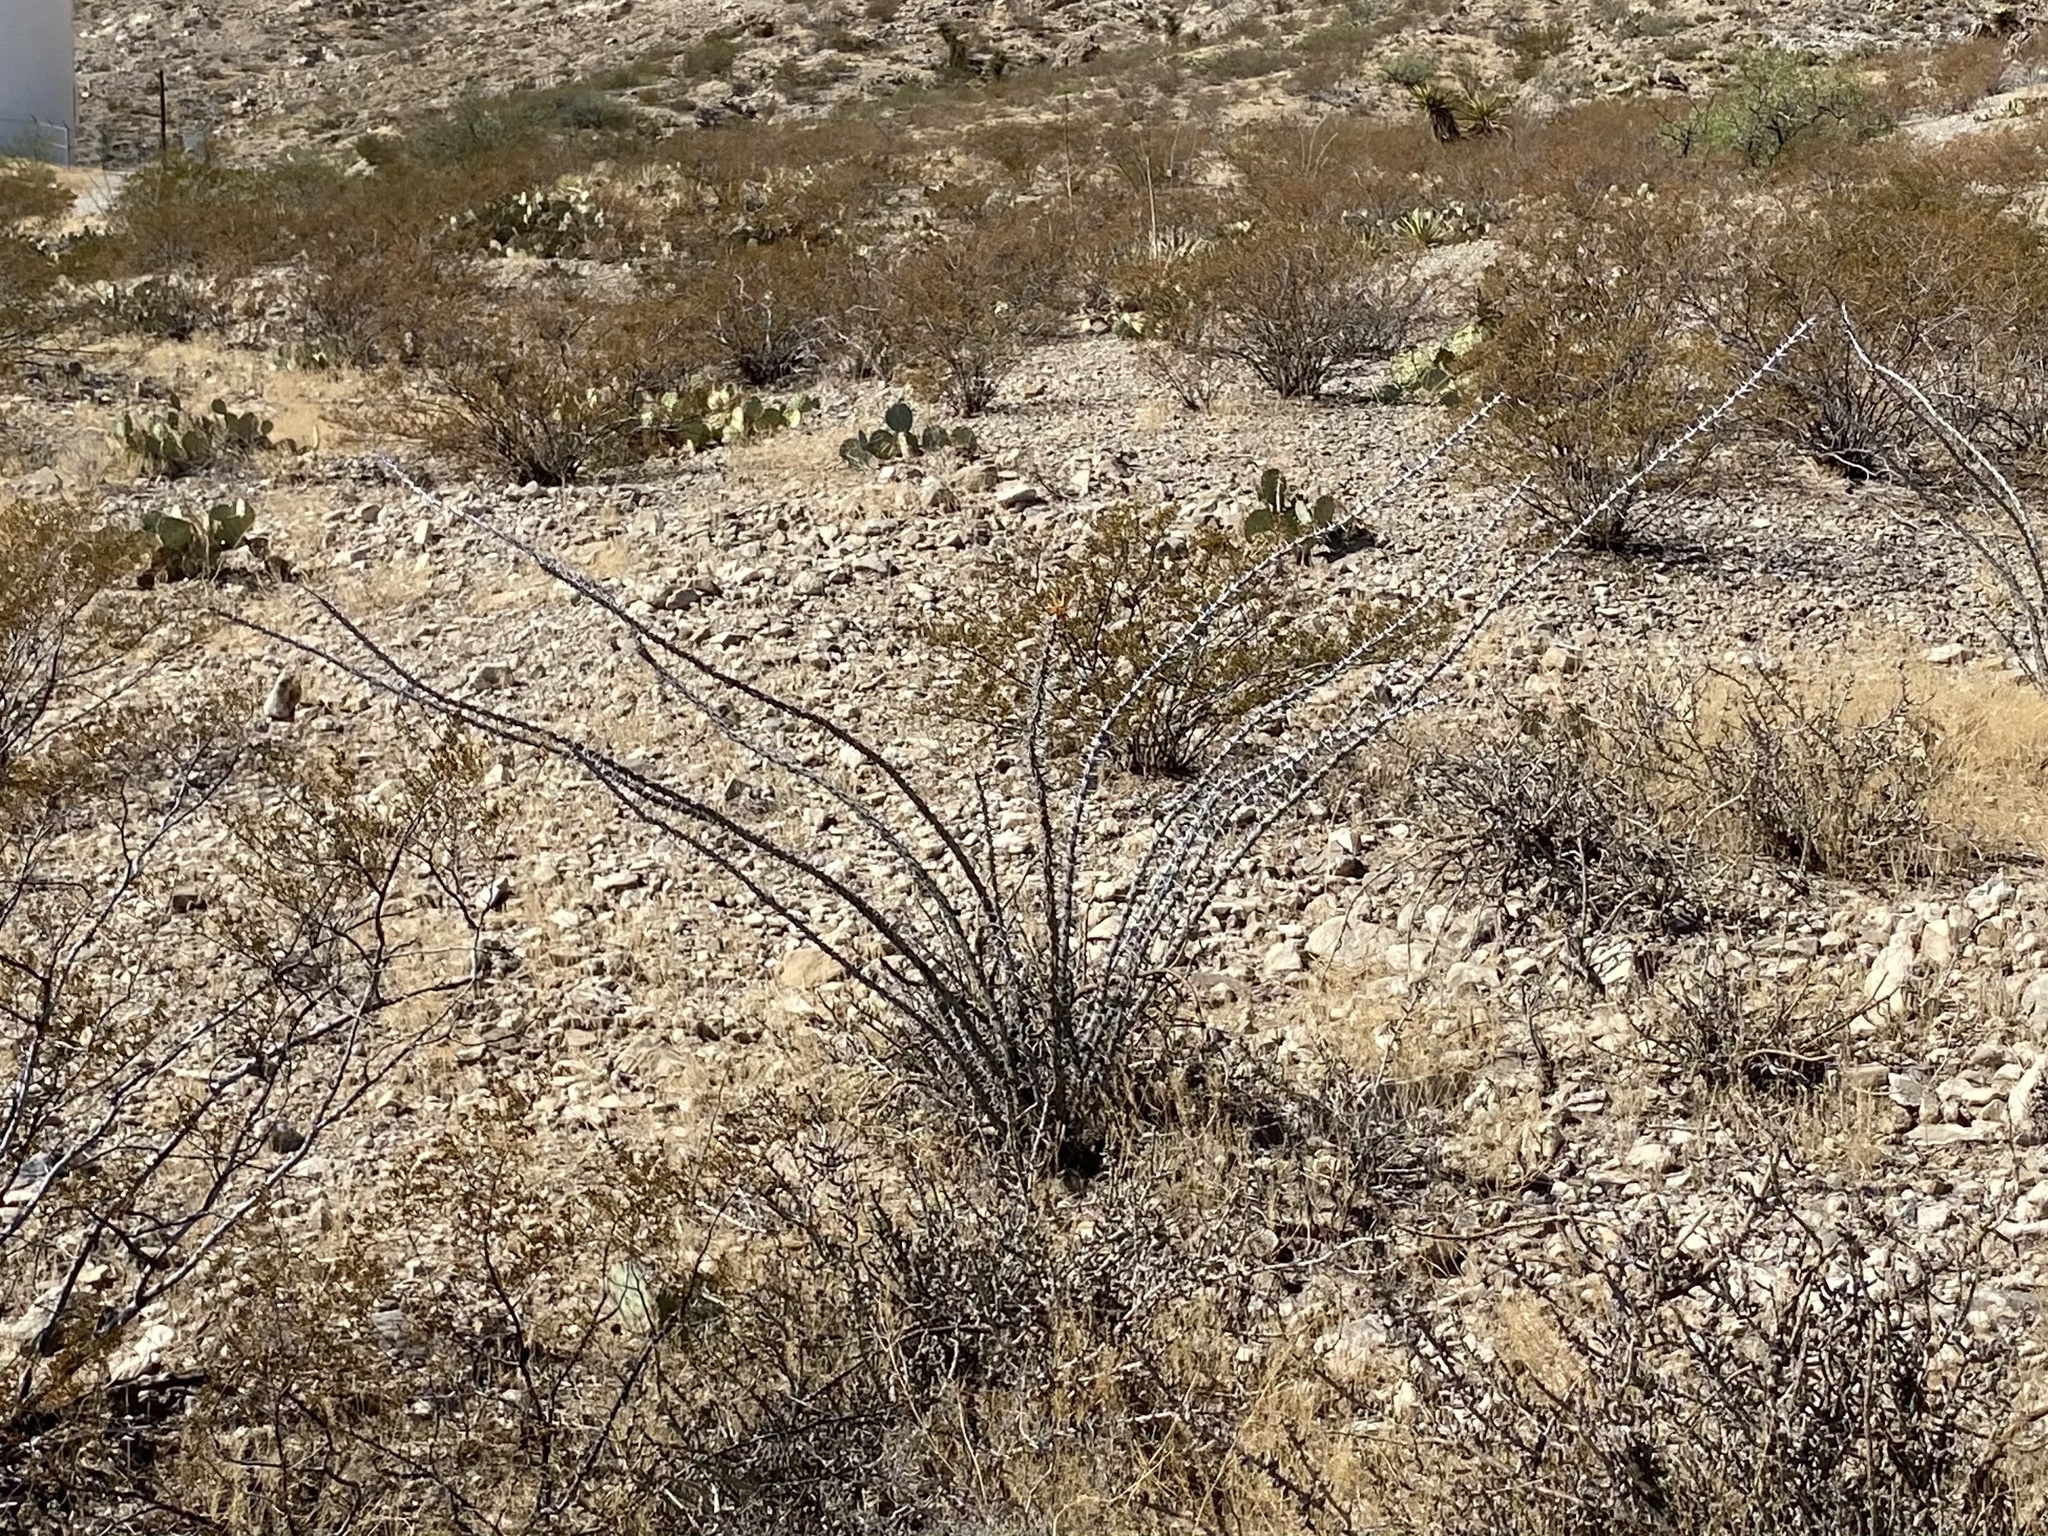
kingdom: Plantae
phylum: Tracheophyta
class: Magnoliopsida
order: Ericales
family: Fouquieriaceae
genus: Fouquieria
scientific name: Fouquieria splendens
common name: Vine-cactus
